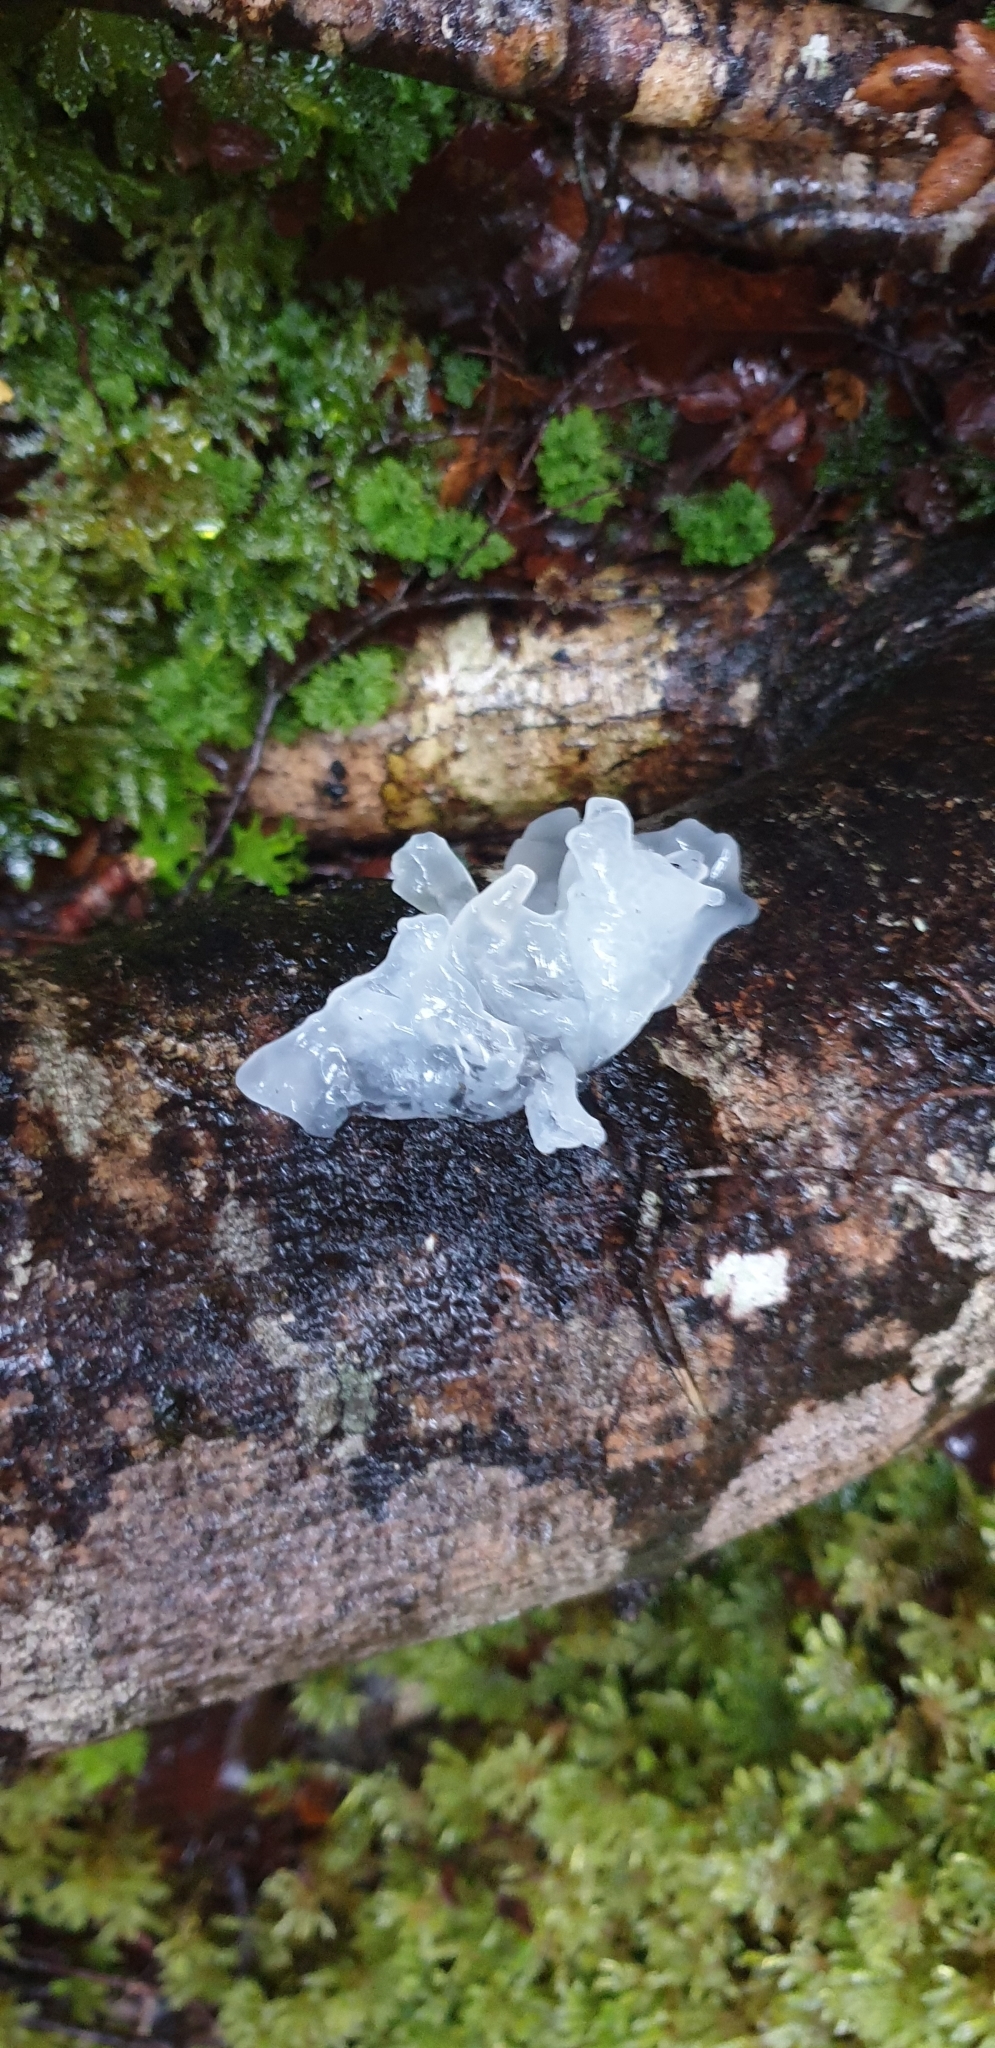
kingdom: Fungi
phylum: Basidiomycota
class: Tremellomycetes
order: Tremellales
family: Tremellaceae
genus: Tremella
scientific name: Tremella fuciformis
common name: Snow fungus
